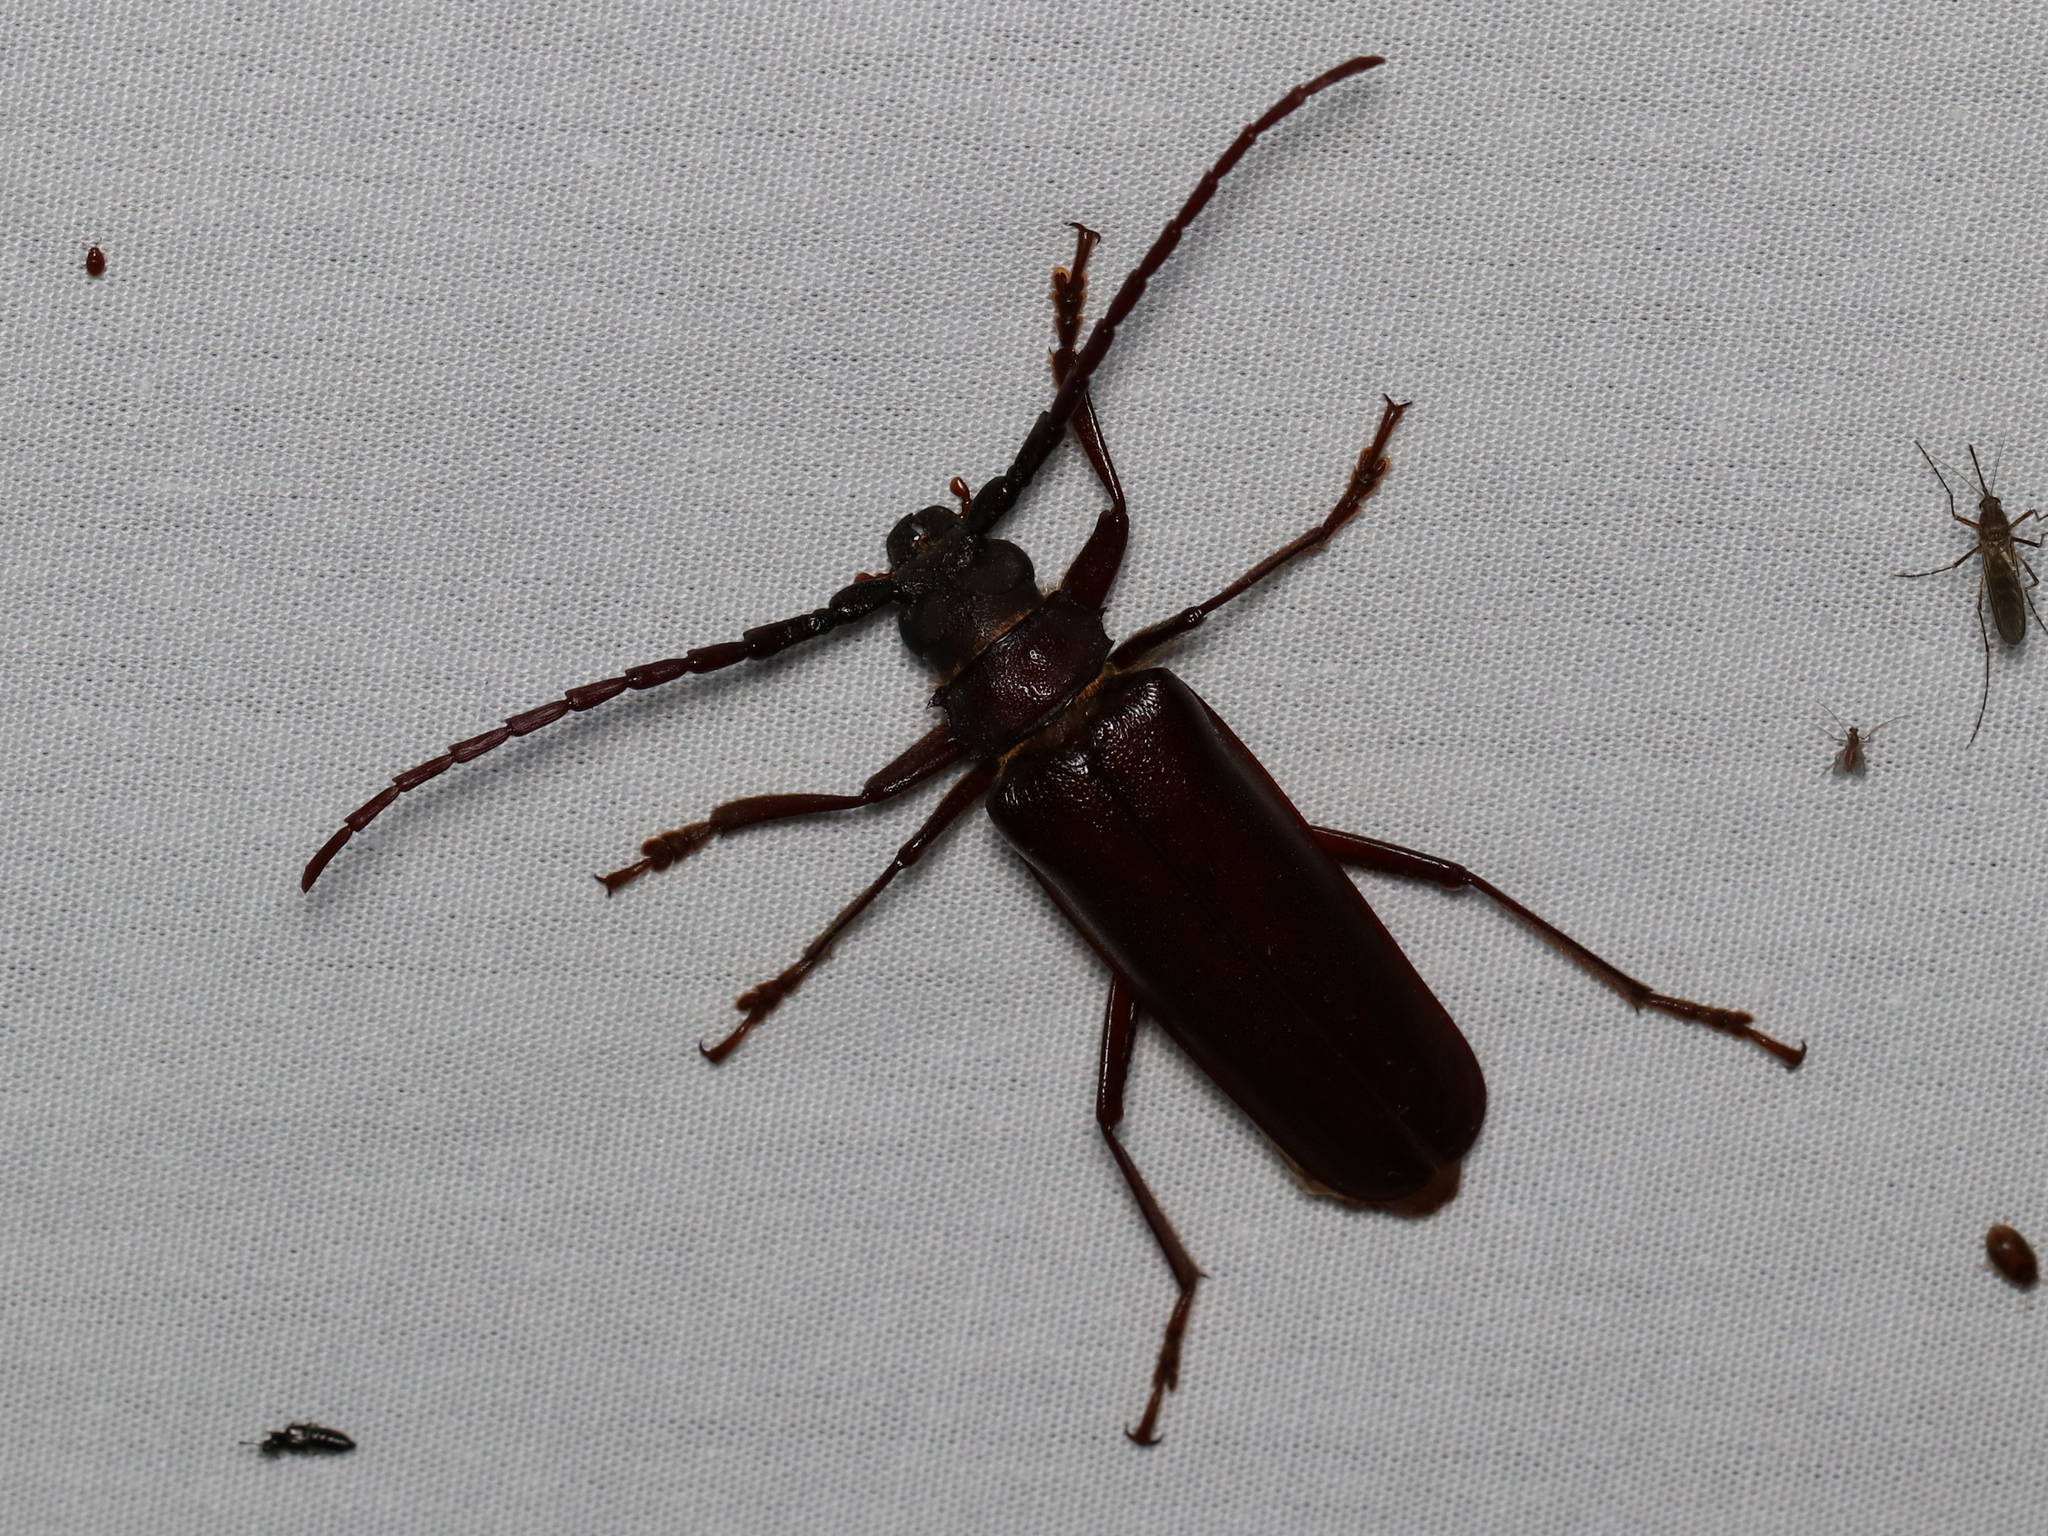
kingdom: Animalia
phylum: Arthropoda
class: Insecta
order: Coleoptera
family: Cerambycidae
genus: Orthosoma
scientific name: Orthosoma brunneum
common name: Brown prionid beetle
